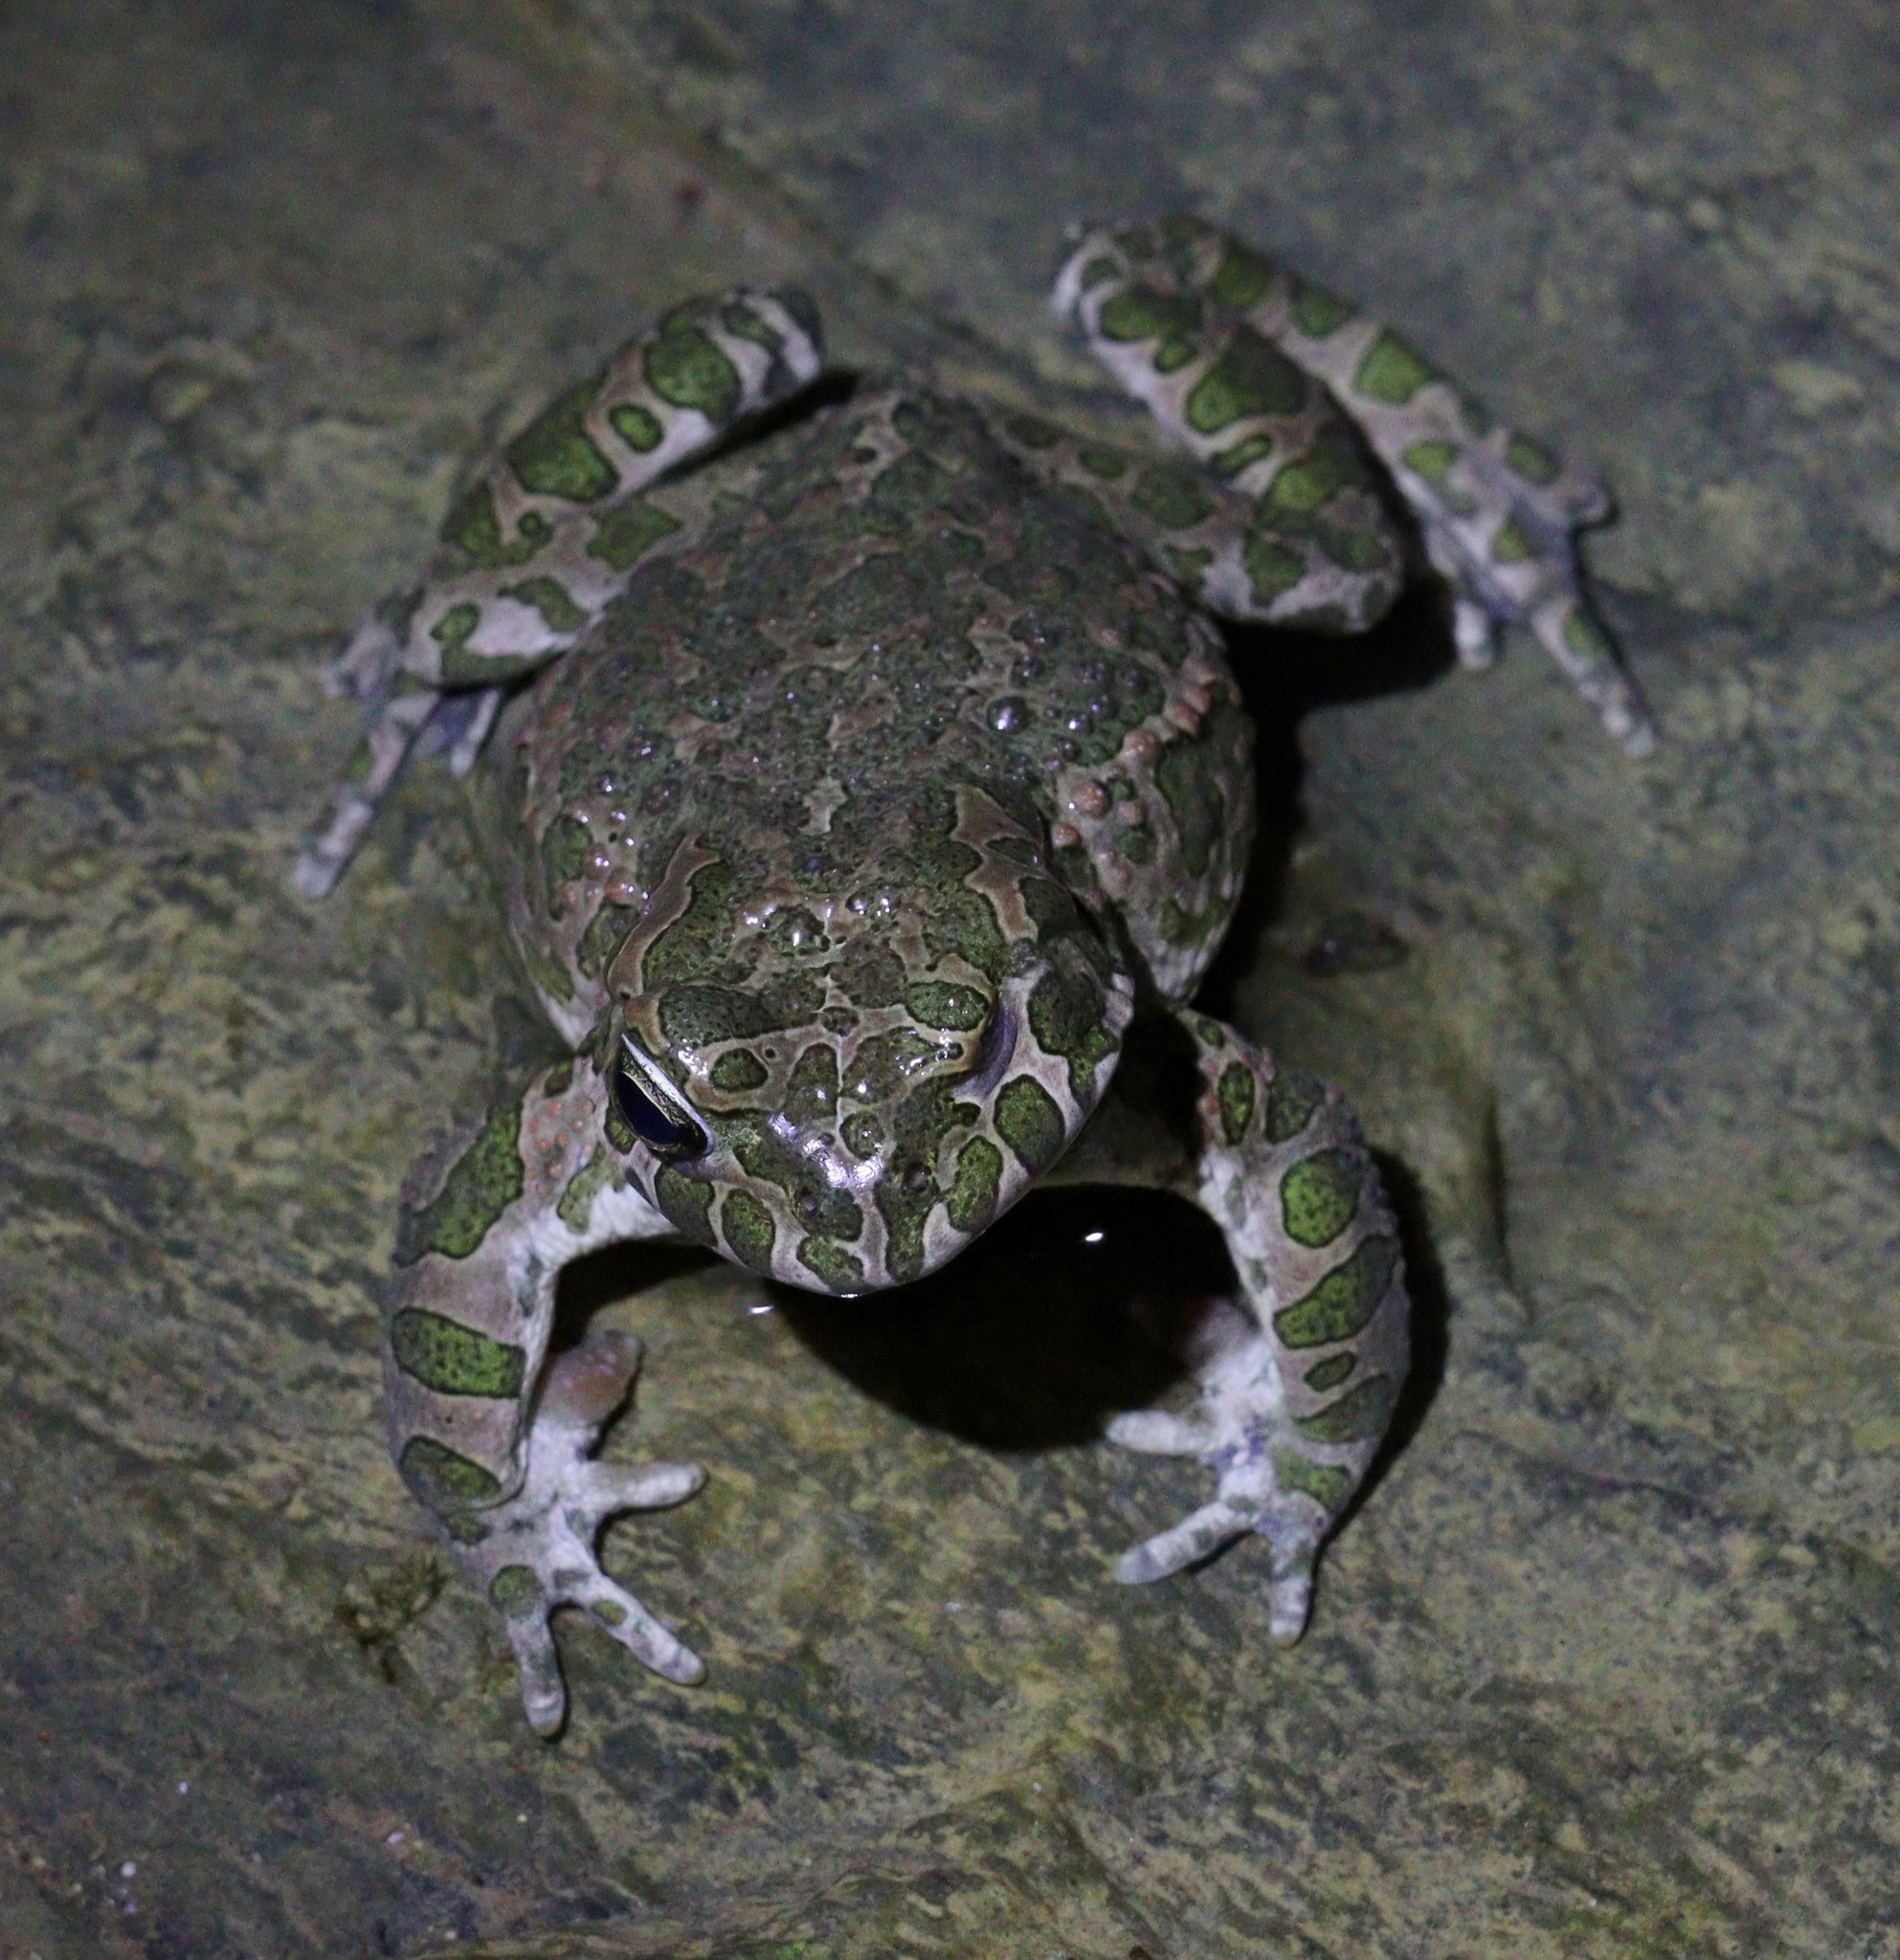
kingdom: Animalia
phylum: Chordata
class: Amphibia
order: Anura
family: Bufonidae
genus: Bufotes
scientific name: Bufotes viridis
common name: European green toad
